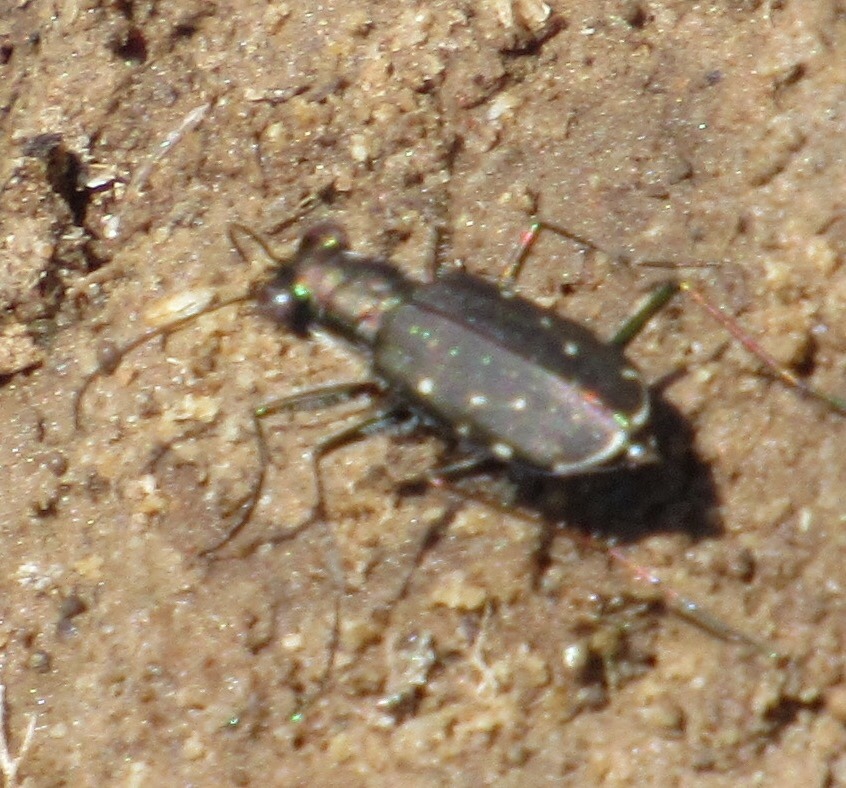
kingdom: Animalia
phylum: Arthropoda
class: Insecta
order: Coleoptera
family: Carabidae
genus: Cicindela
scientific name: Cicindela punctulata
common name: Punctured tiger beetle
